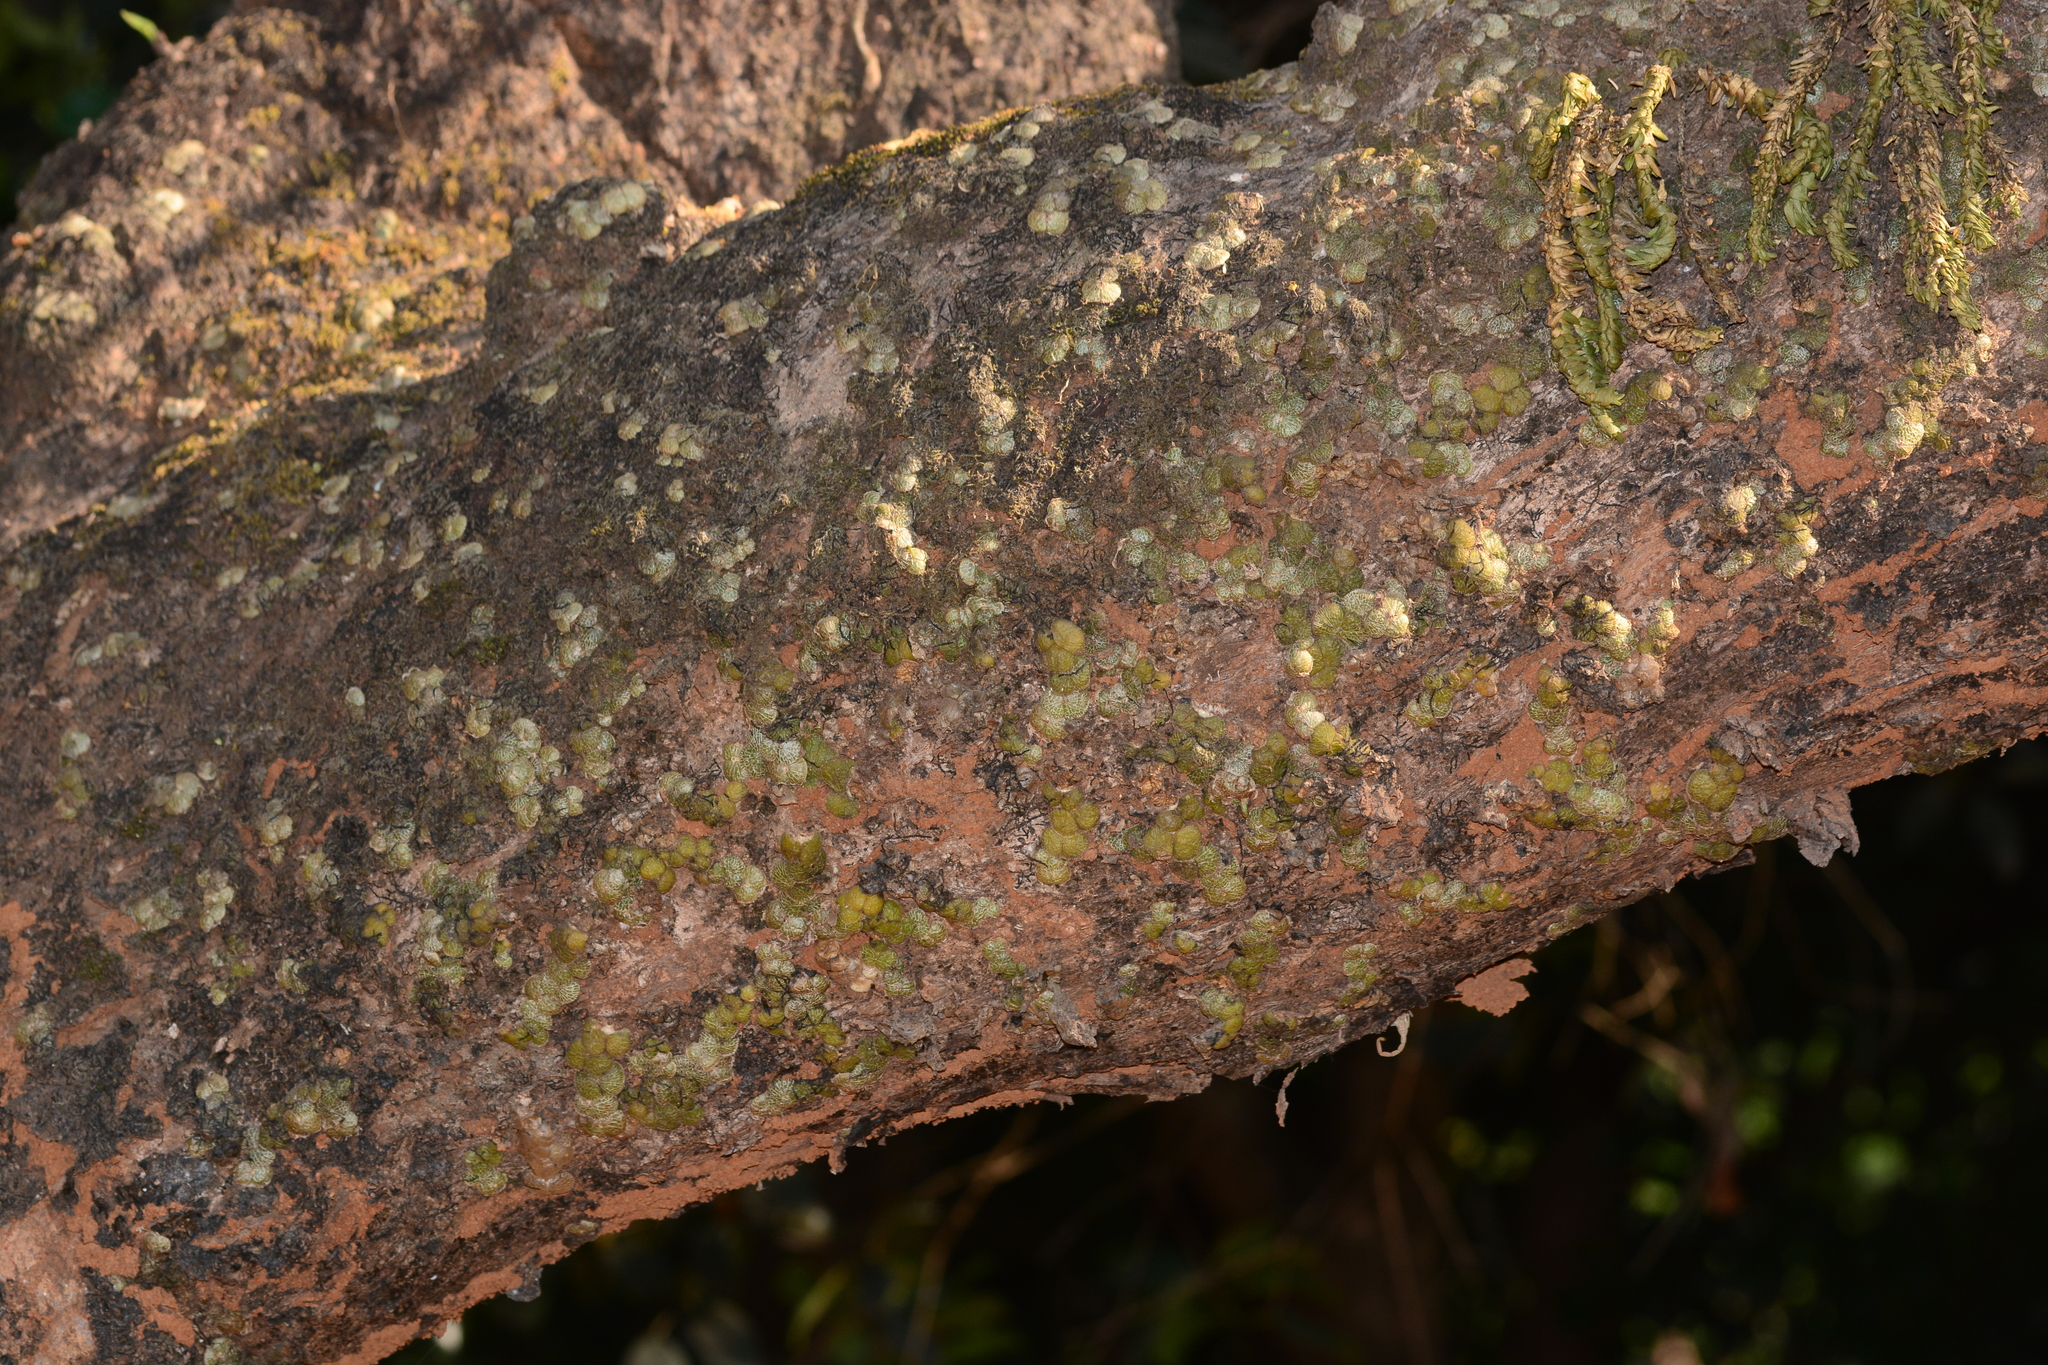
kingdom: Plantae
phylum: Tracheophyta
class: Liliopsida
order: Asparagales
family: Orchidaceae
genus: Porpax
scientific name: Porpax reticulata
